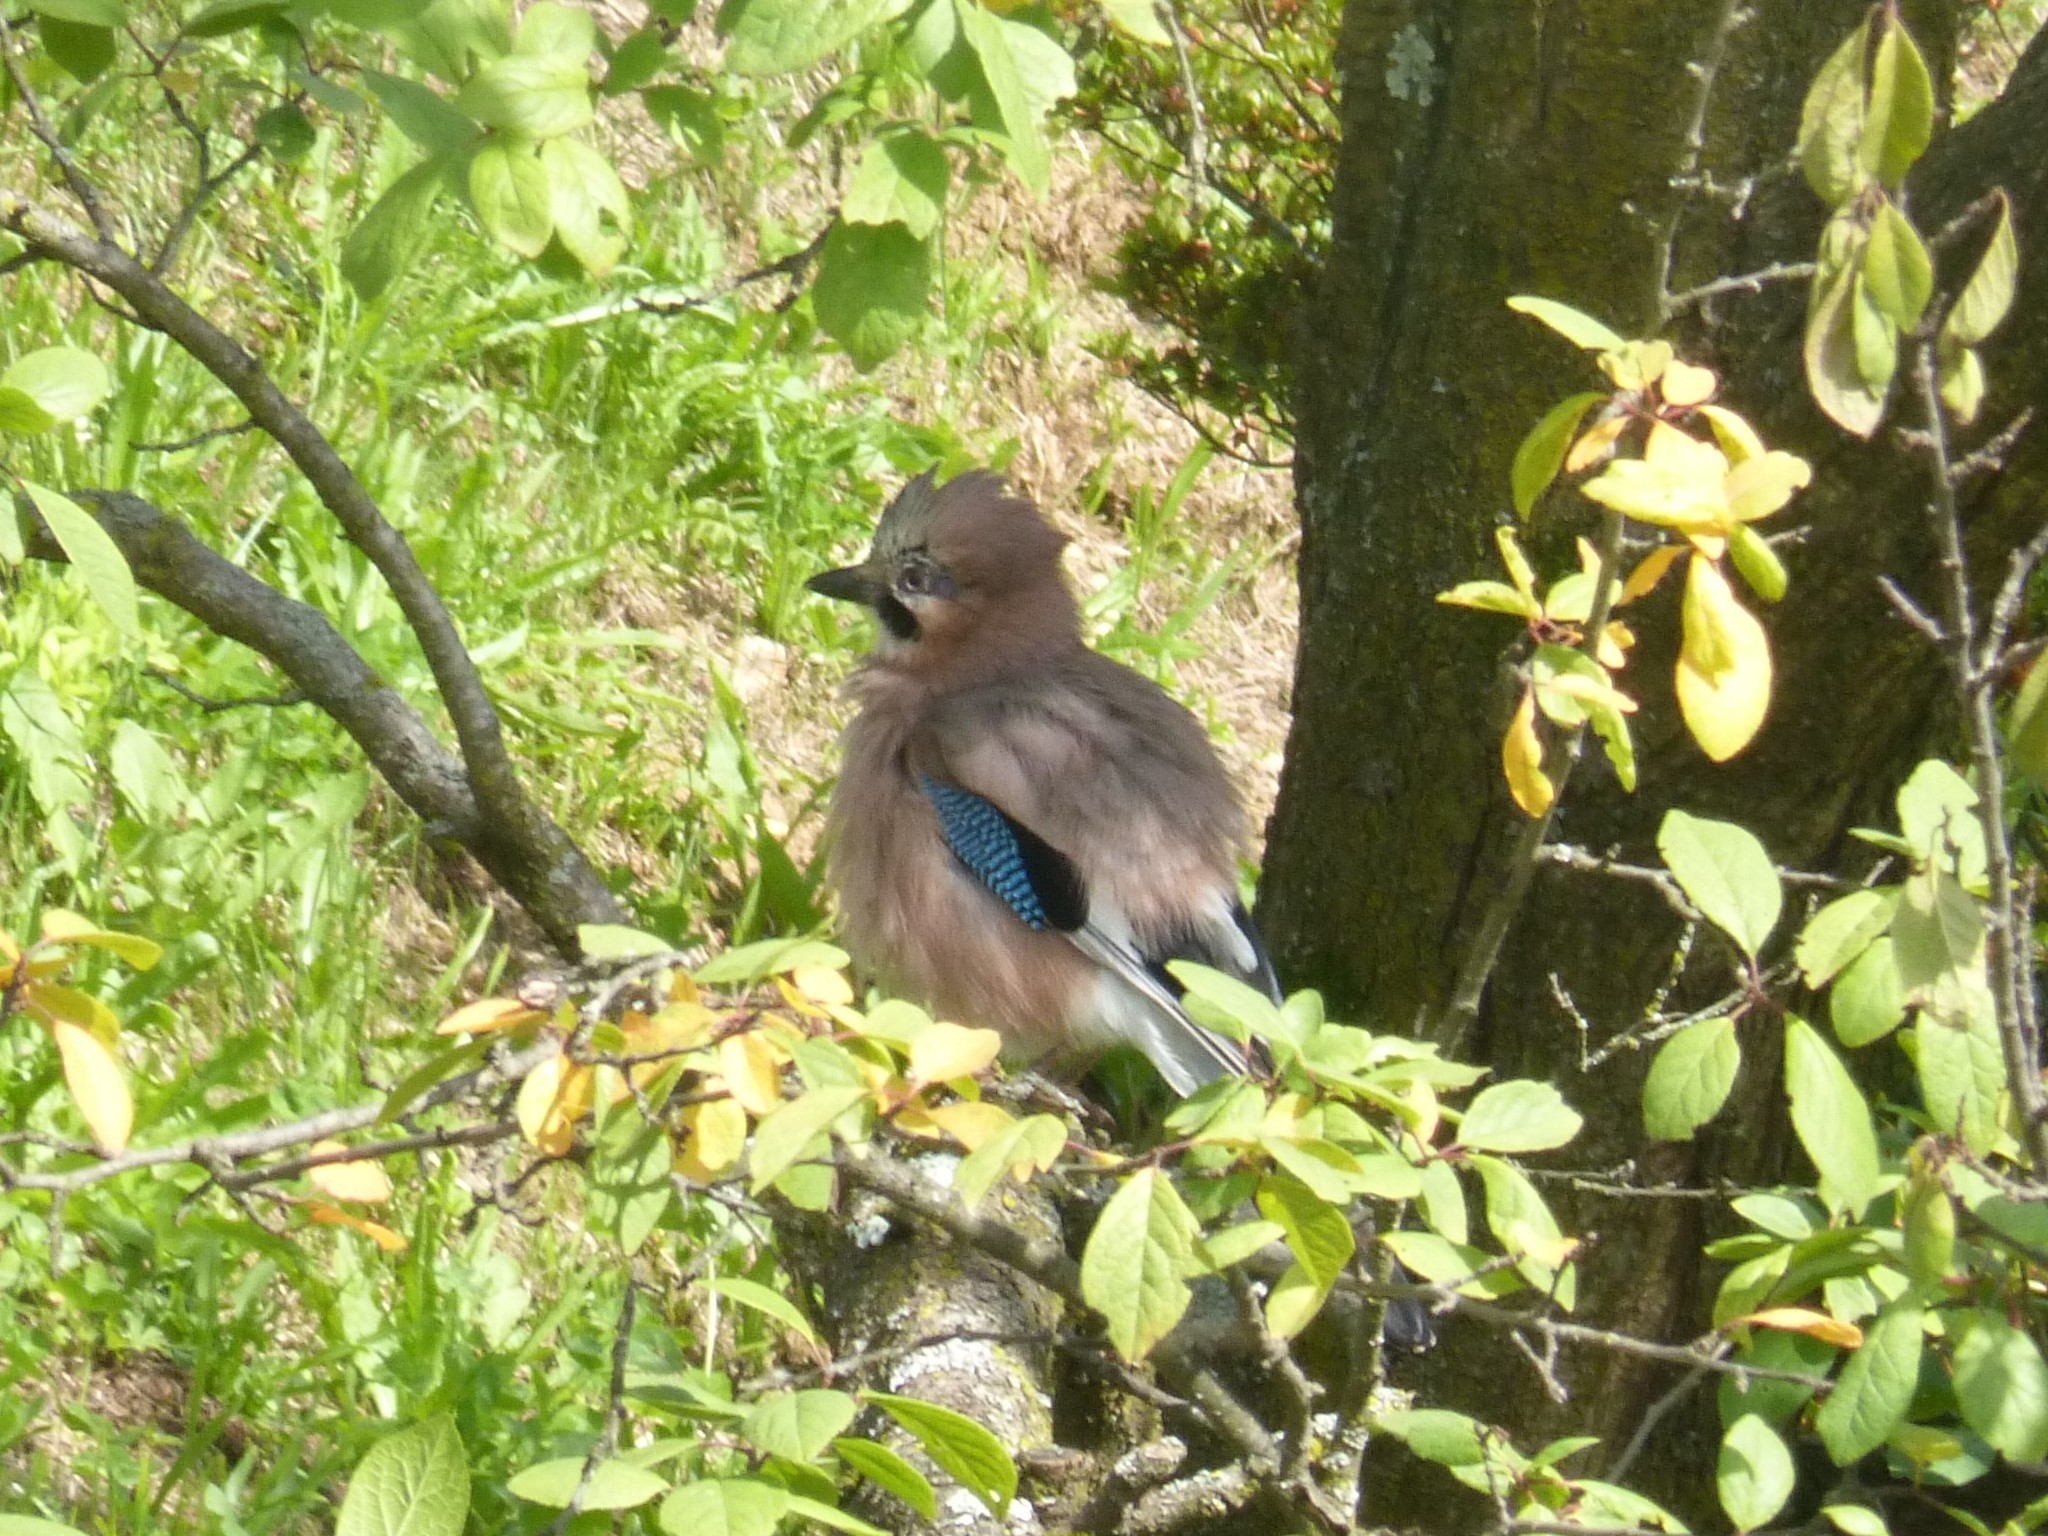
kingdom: Animalia
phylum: Chordata
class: Aves
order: Passeriformes
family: Corvidae
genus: Garrulus
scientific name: Garrulus glandarius
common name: Eurasian jay
